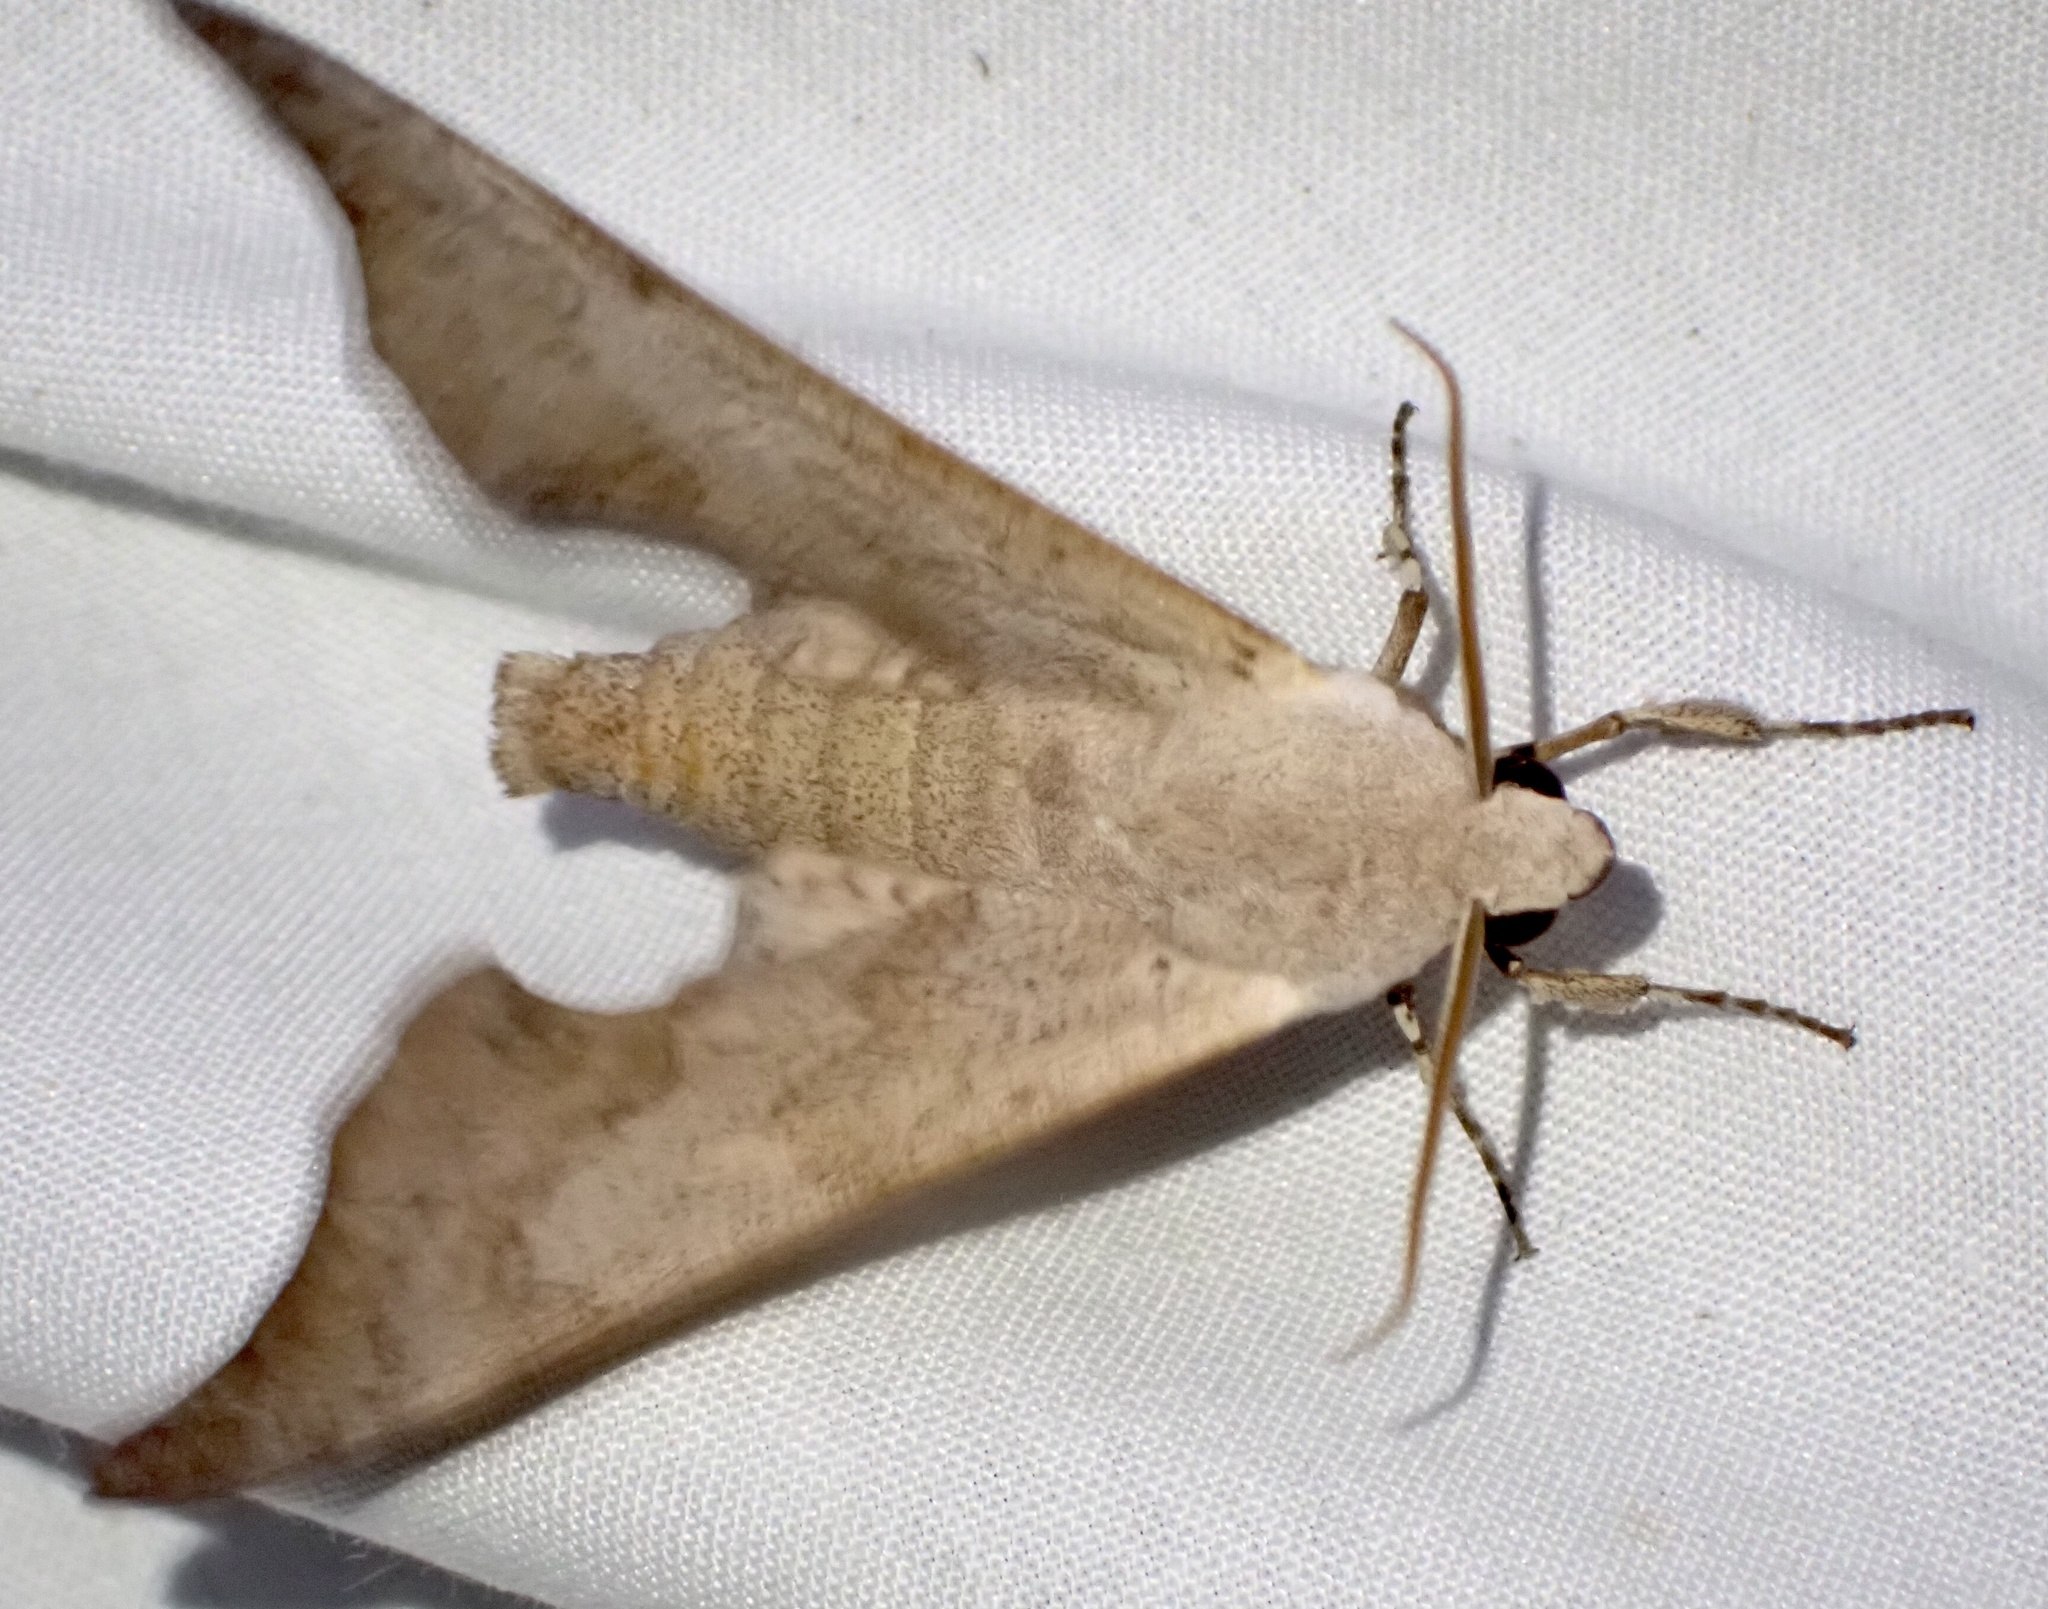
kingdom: Animalia
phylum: Arthropoda
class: Insecta
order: Lepidoptera
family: Sphingidae
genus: Polyptychus
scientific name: Polyptychus anochus
